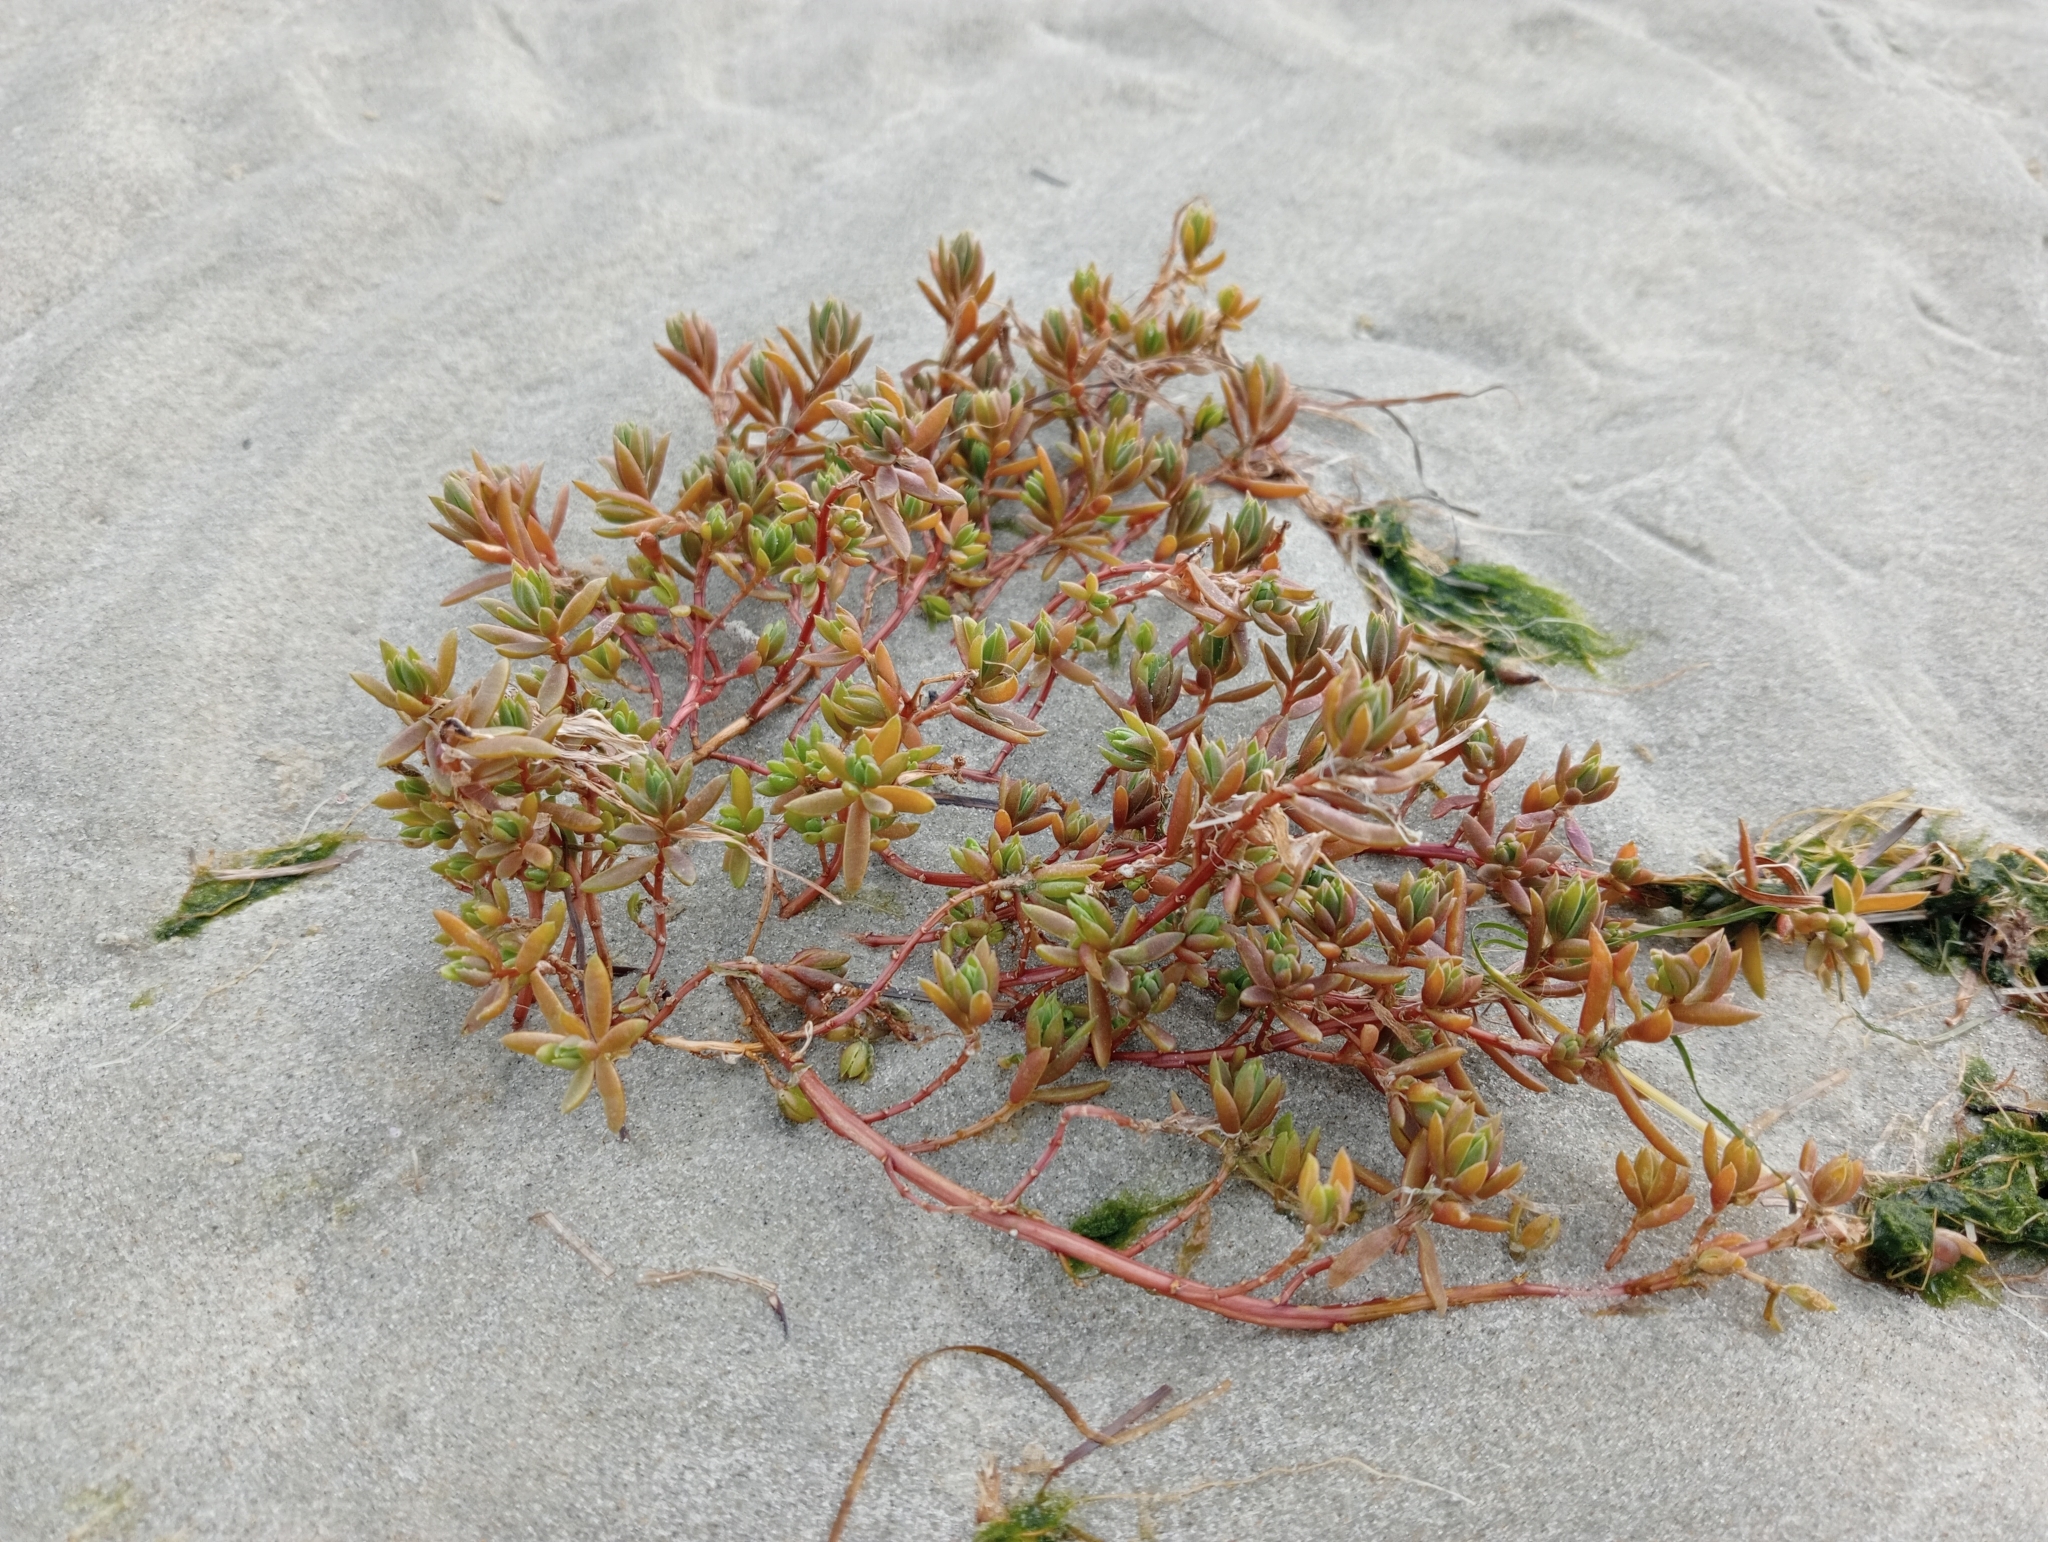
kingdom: Plantae
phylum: Tracheophyta
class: Magnoliopsida
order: Caryophyllales
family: Amaranthaceae
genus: Suaeda
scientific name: Suaeda novae-zelandiae
